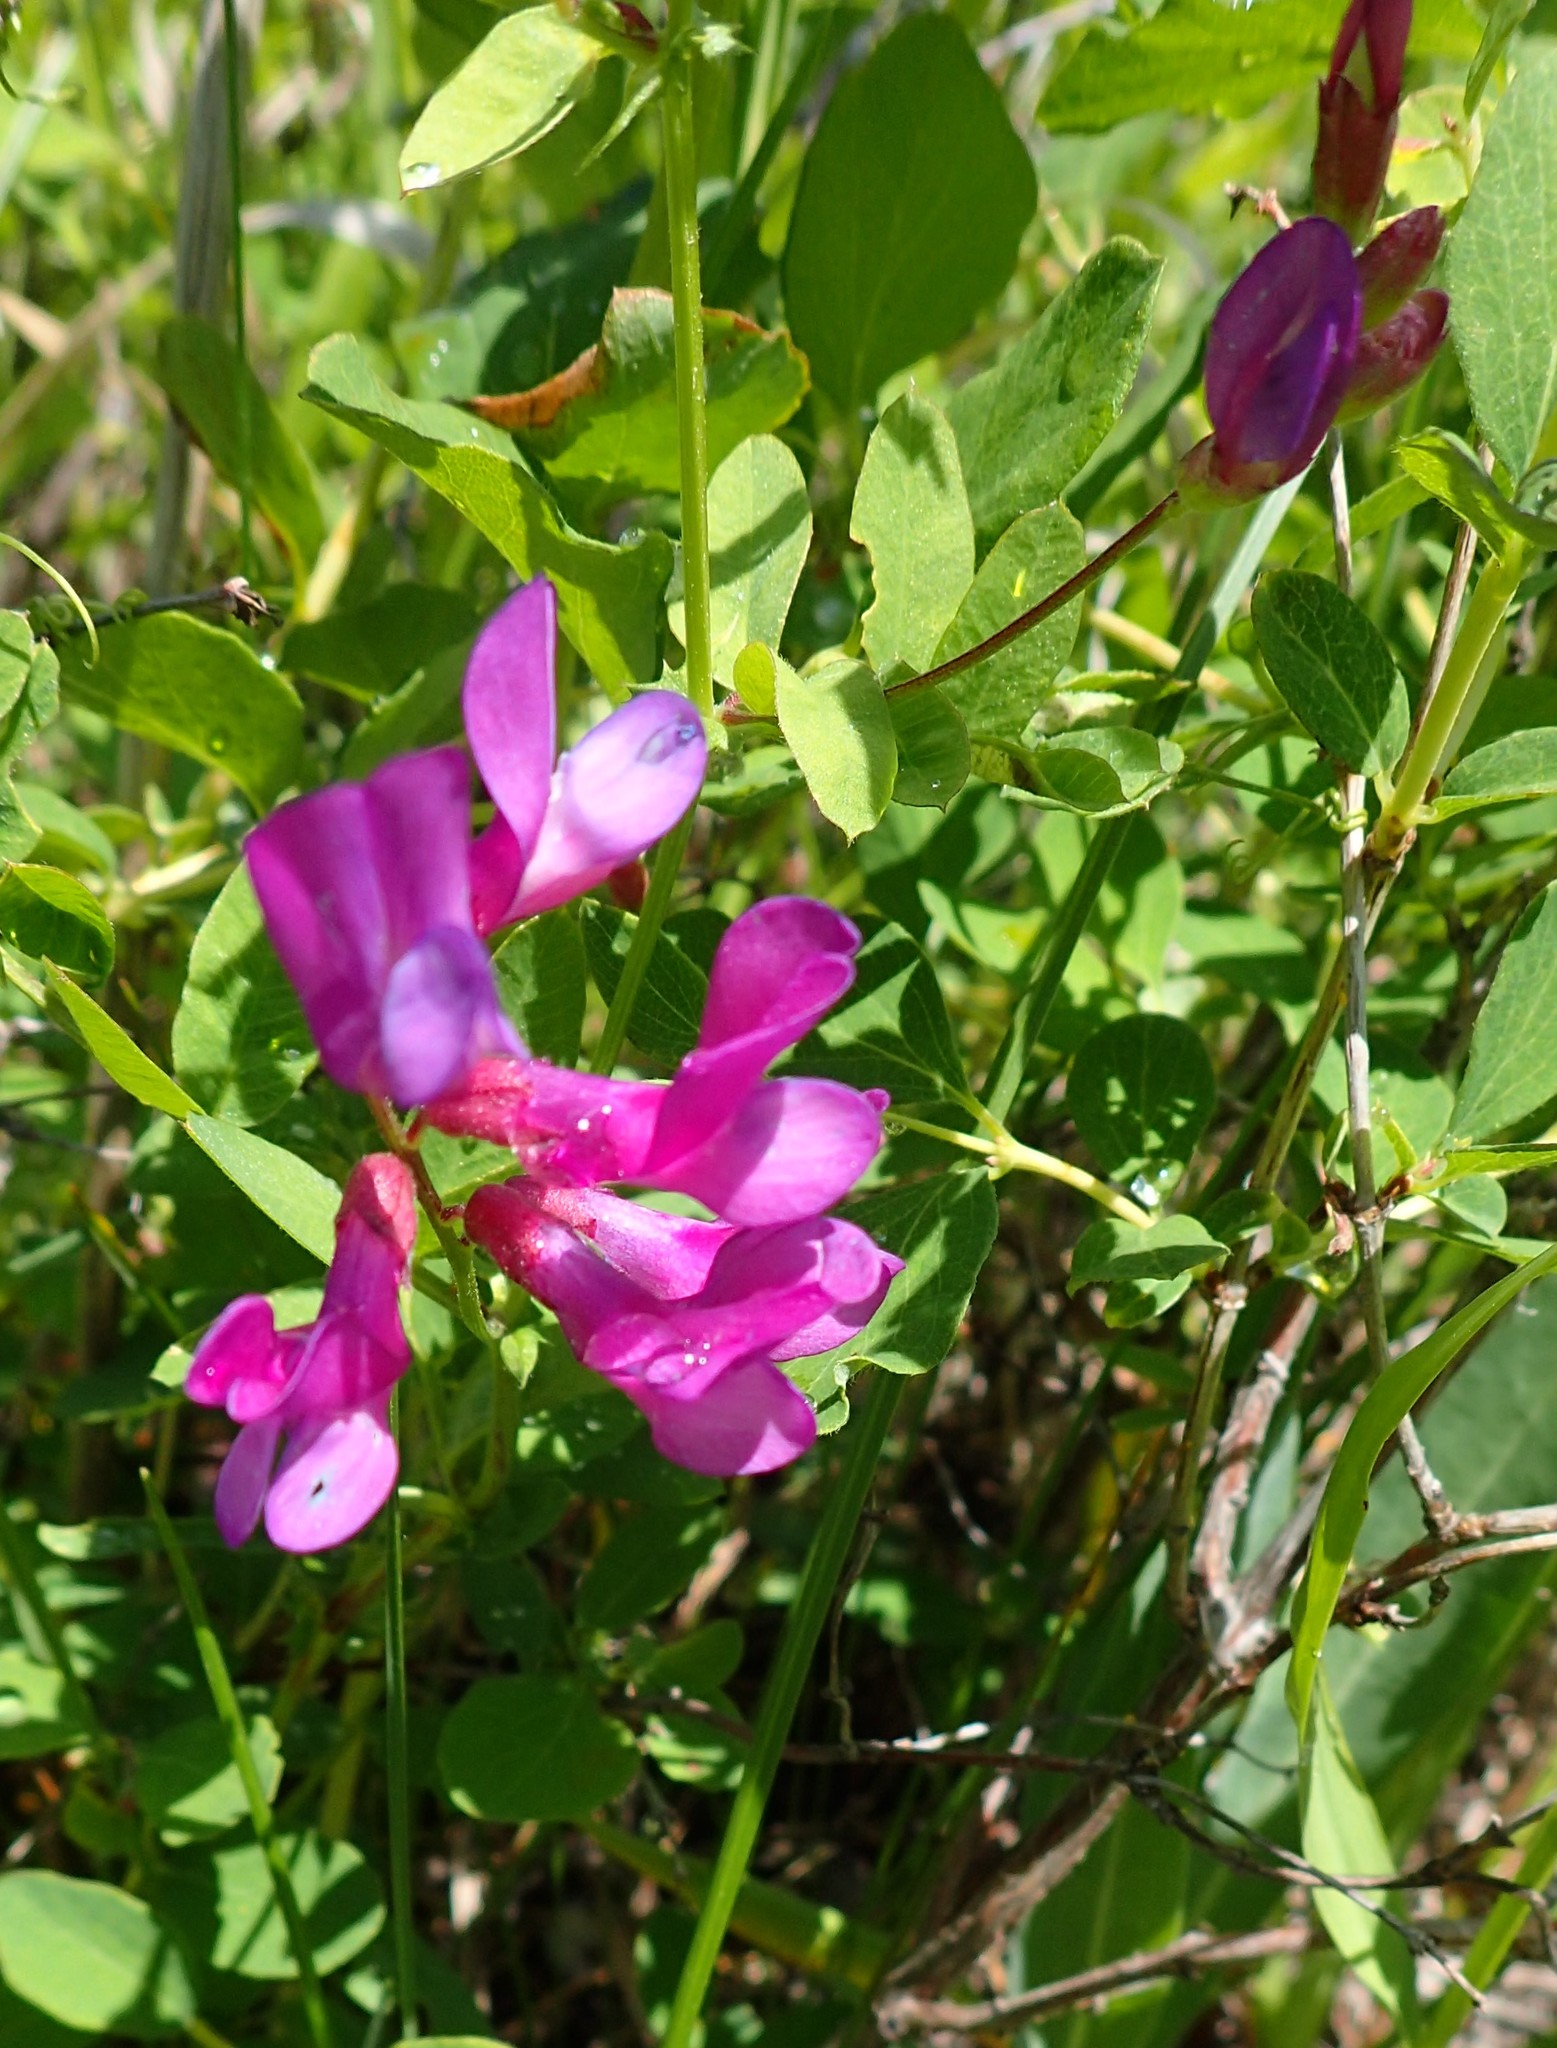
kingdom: Plantae
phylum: Tracheophyta
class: Magnoliopsida
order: Fabales
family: Fabaceae
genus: Vicia
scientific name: Vicia americana
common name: American vetch
